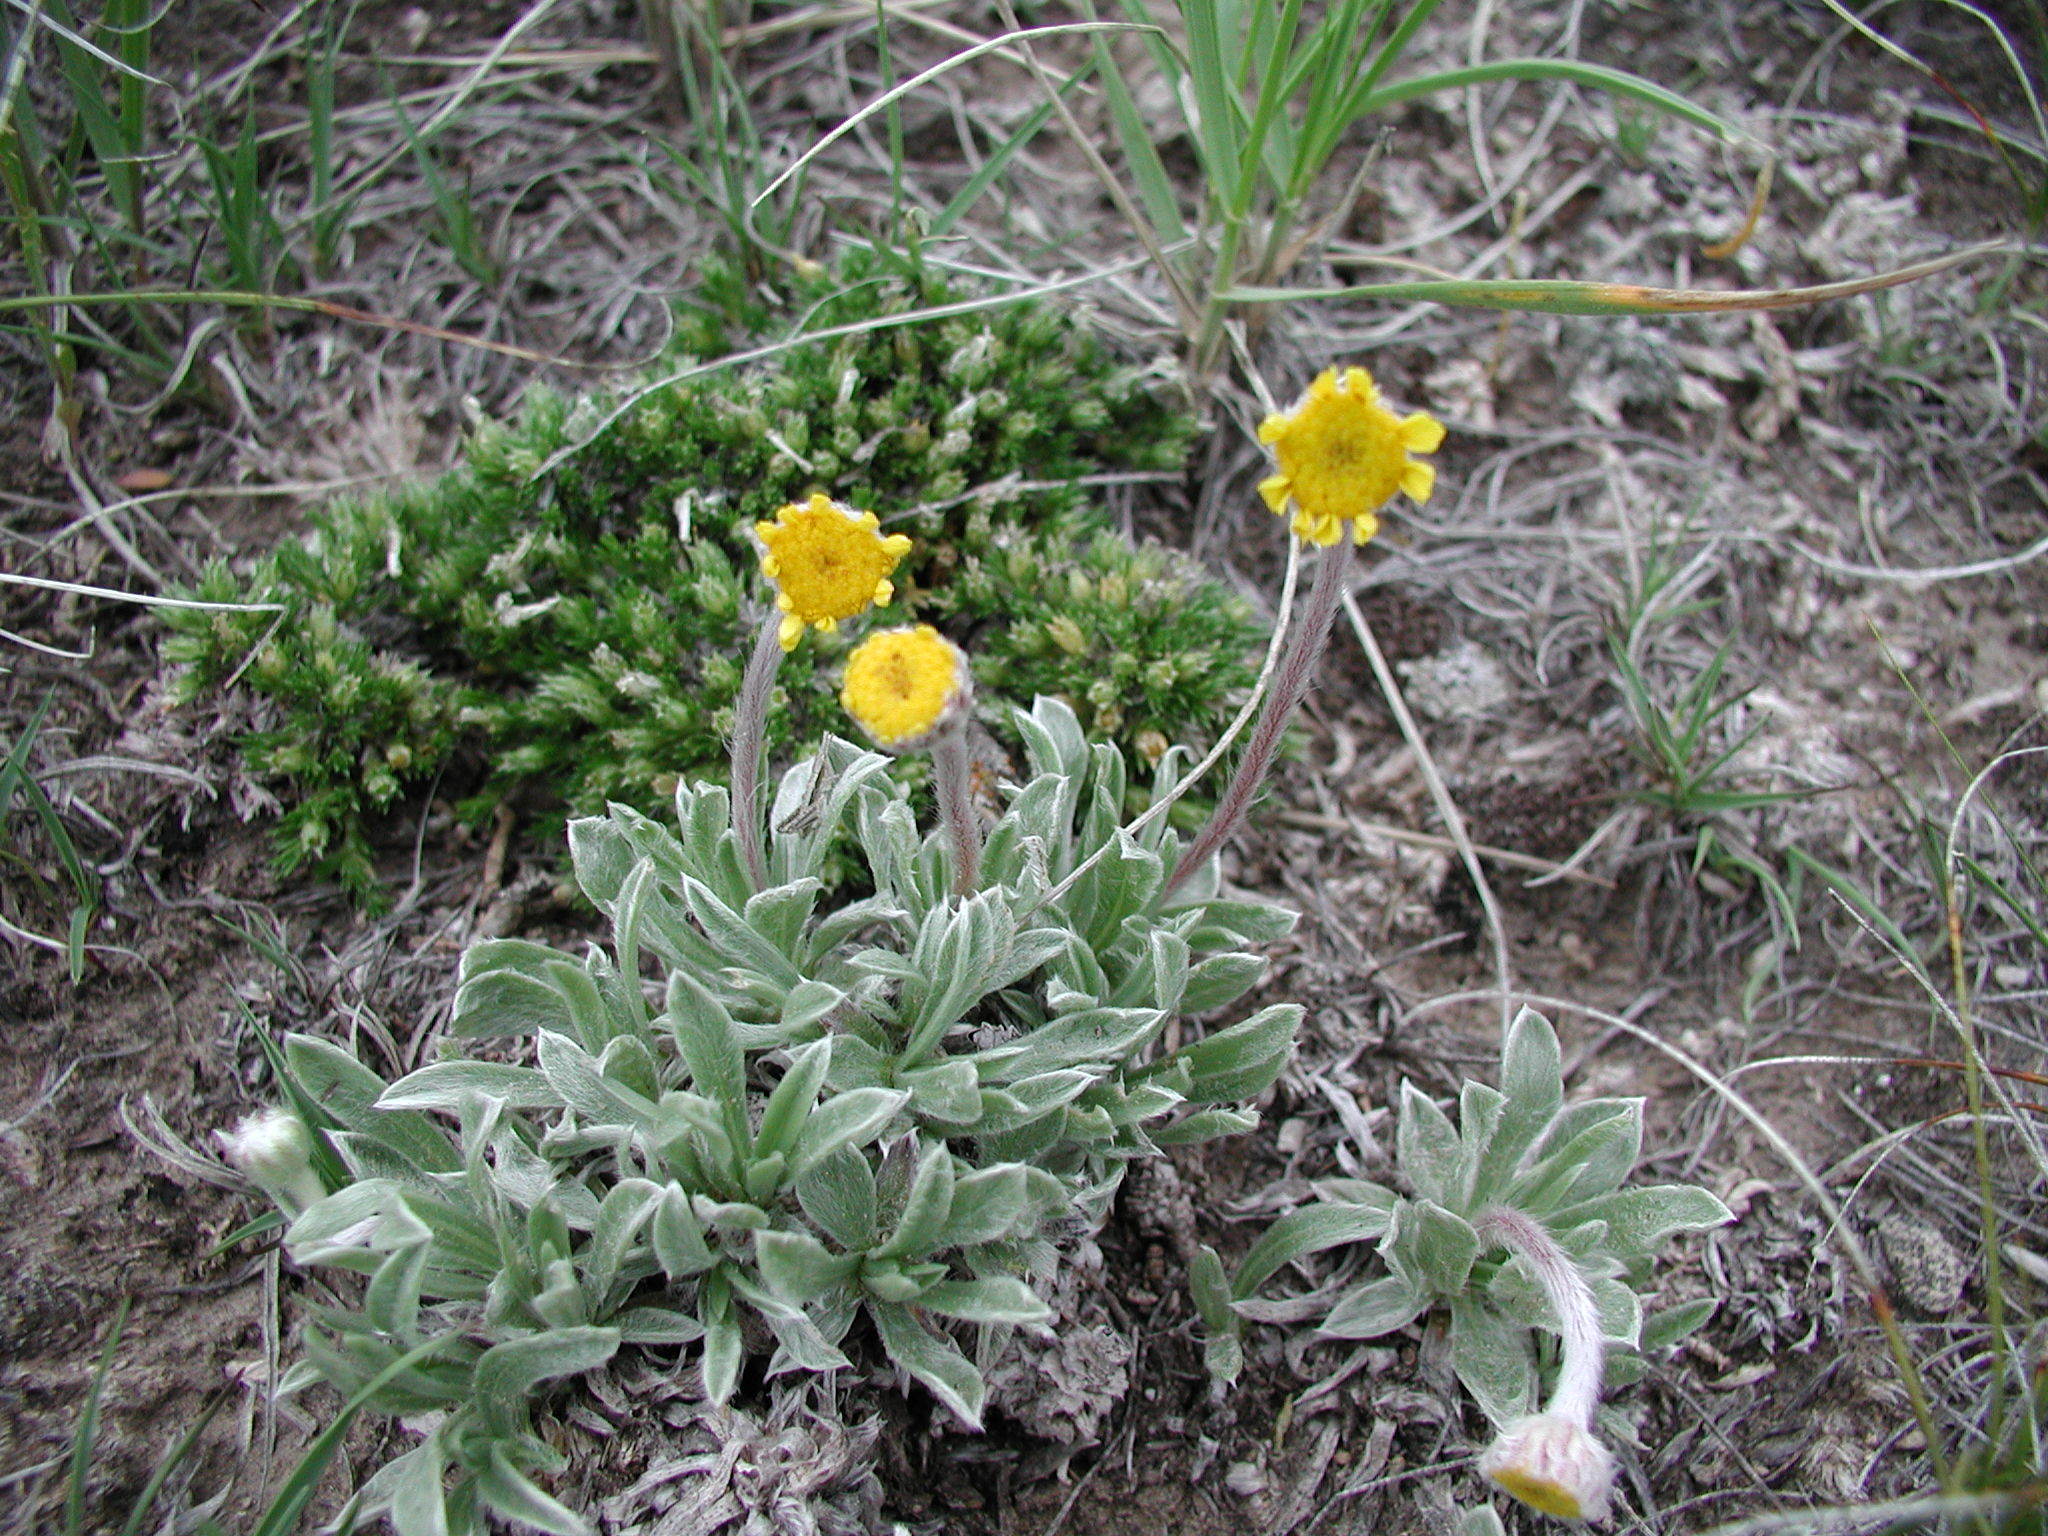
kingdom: Plantae
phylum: Tracheophyta
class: Magnoliopsida
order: Asterales
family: Asteraceae
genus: Tetraneuris
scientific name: Tetraneuris acaulis
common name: Butte marigold
